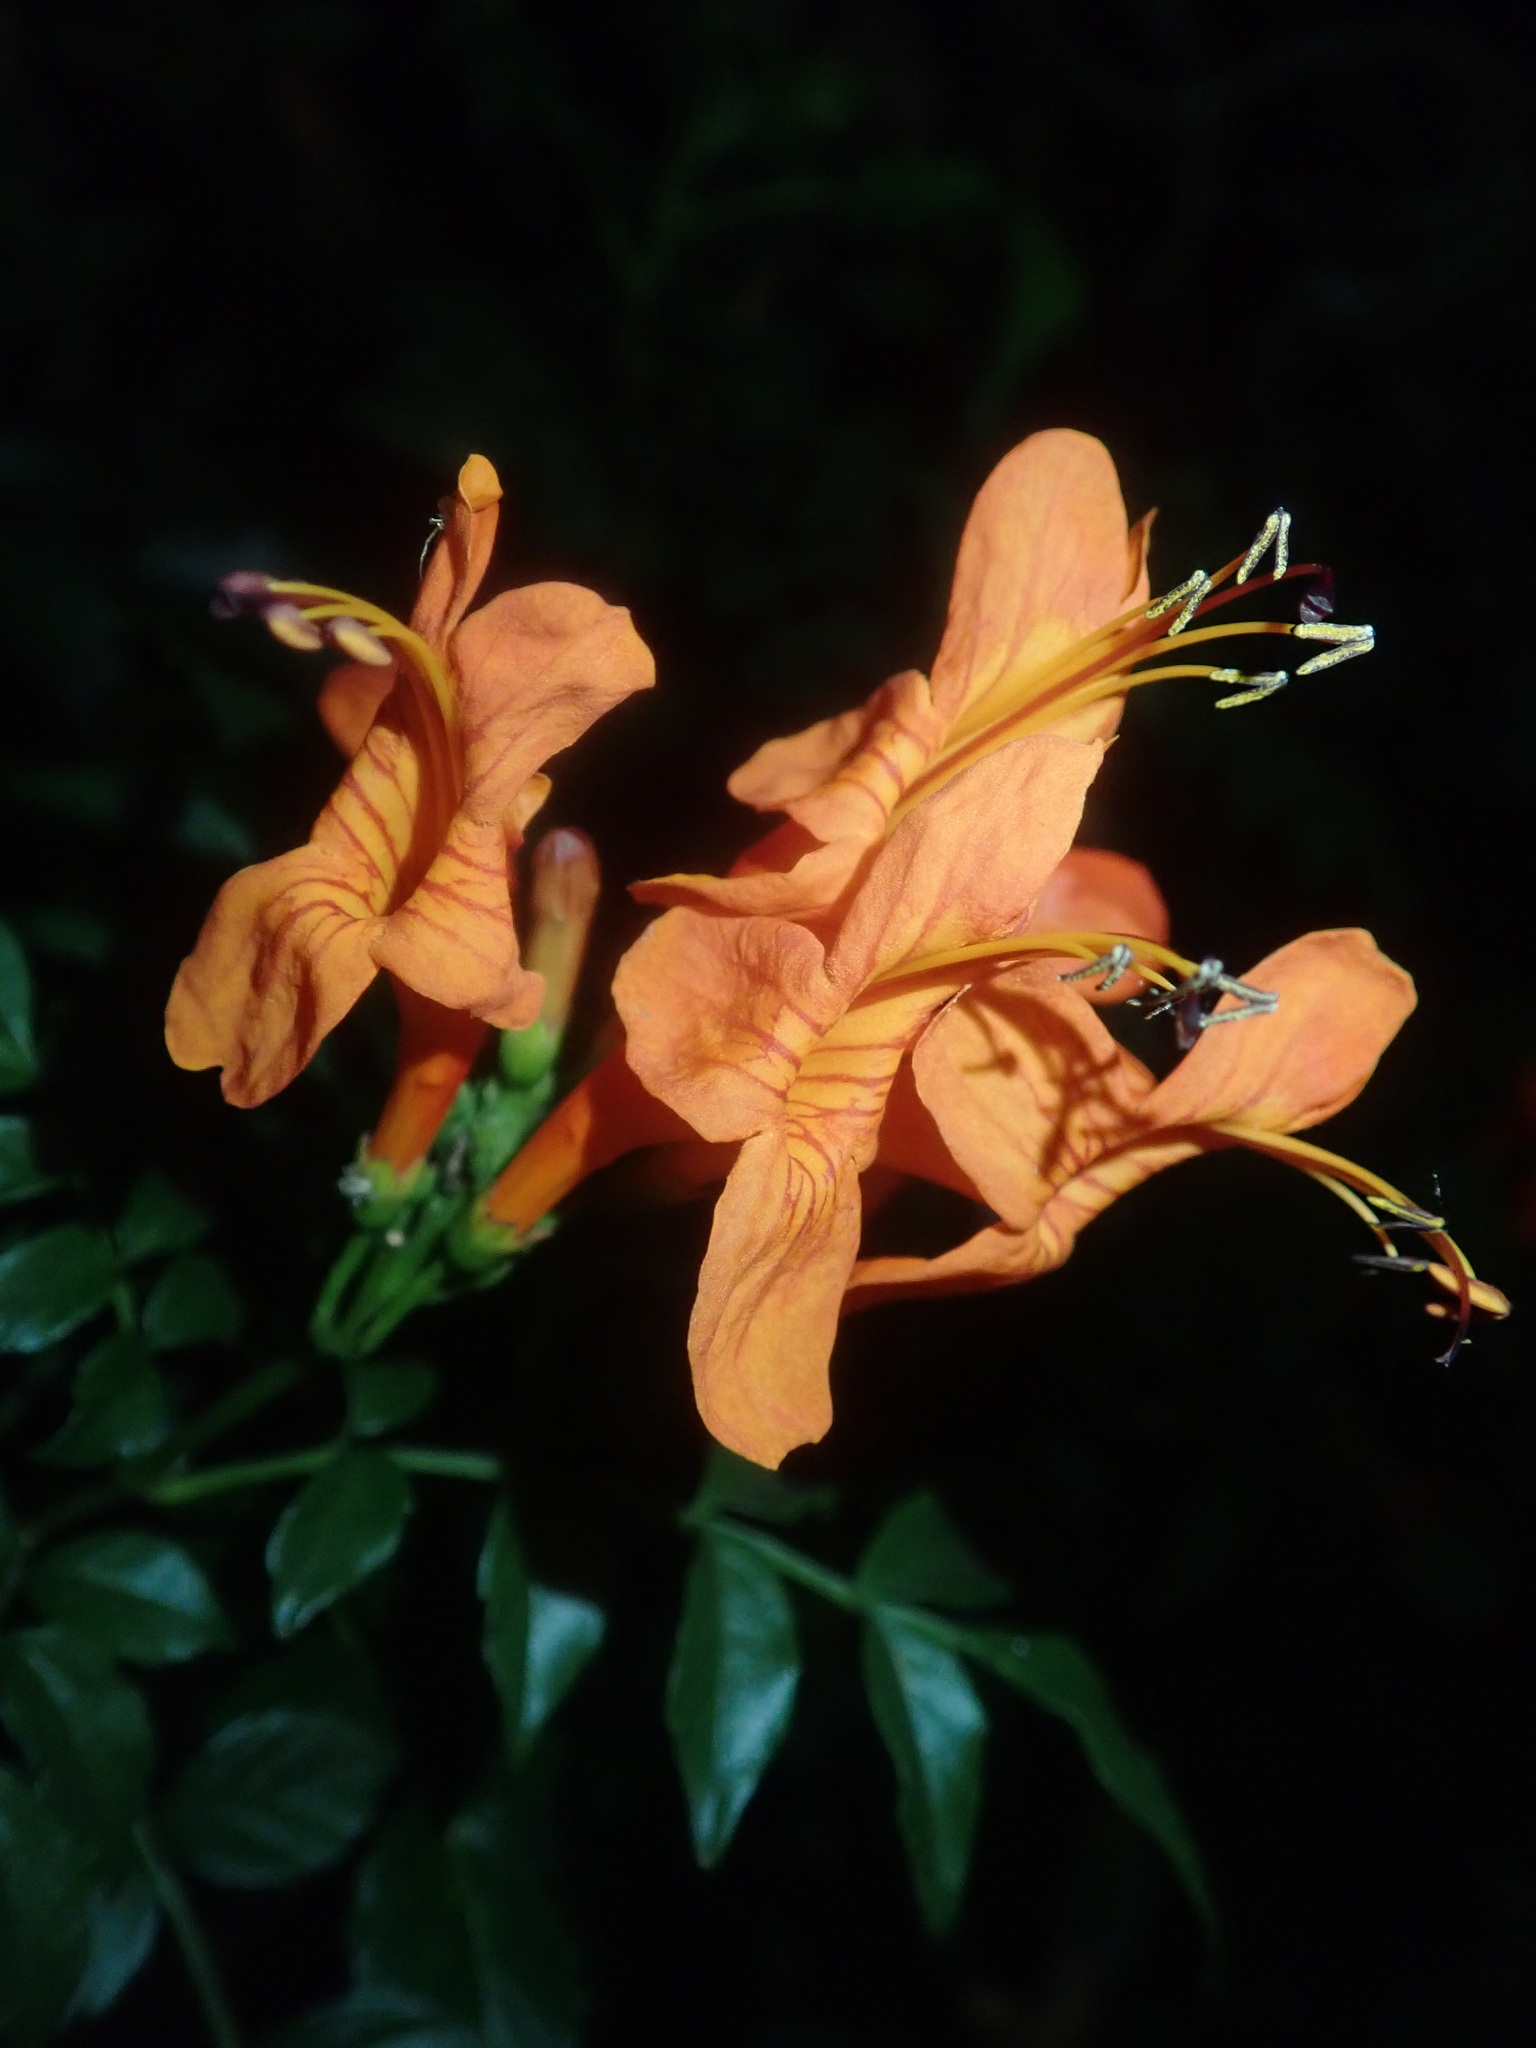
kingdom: Plantae
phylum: Tracheophyta
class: Magnoliopsida
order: Lamiales
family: Bignoniaceae
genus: Tecomaria
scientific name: Tecomaria capensis
